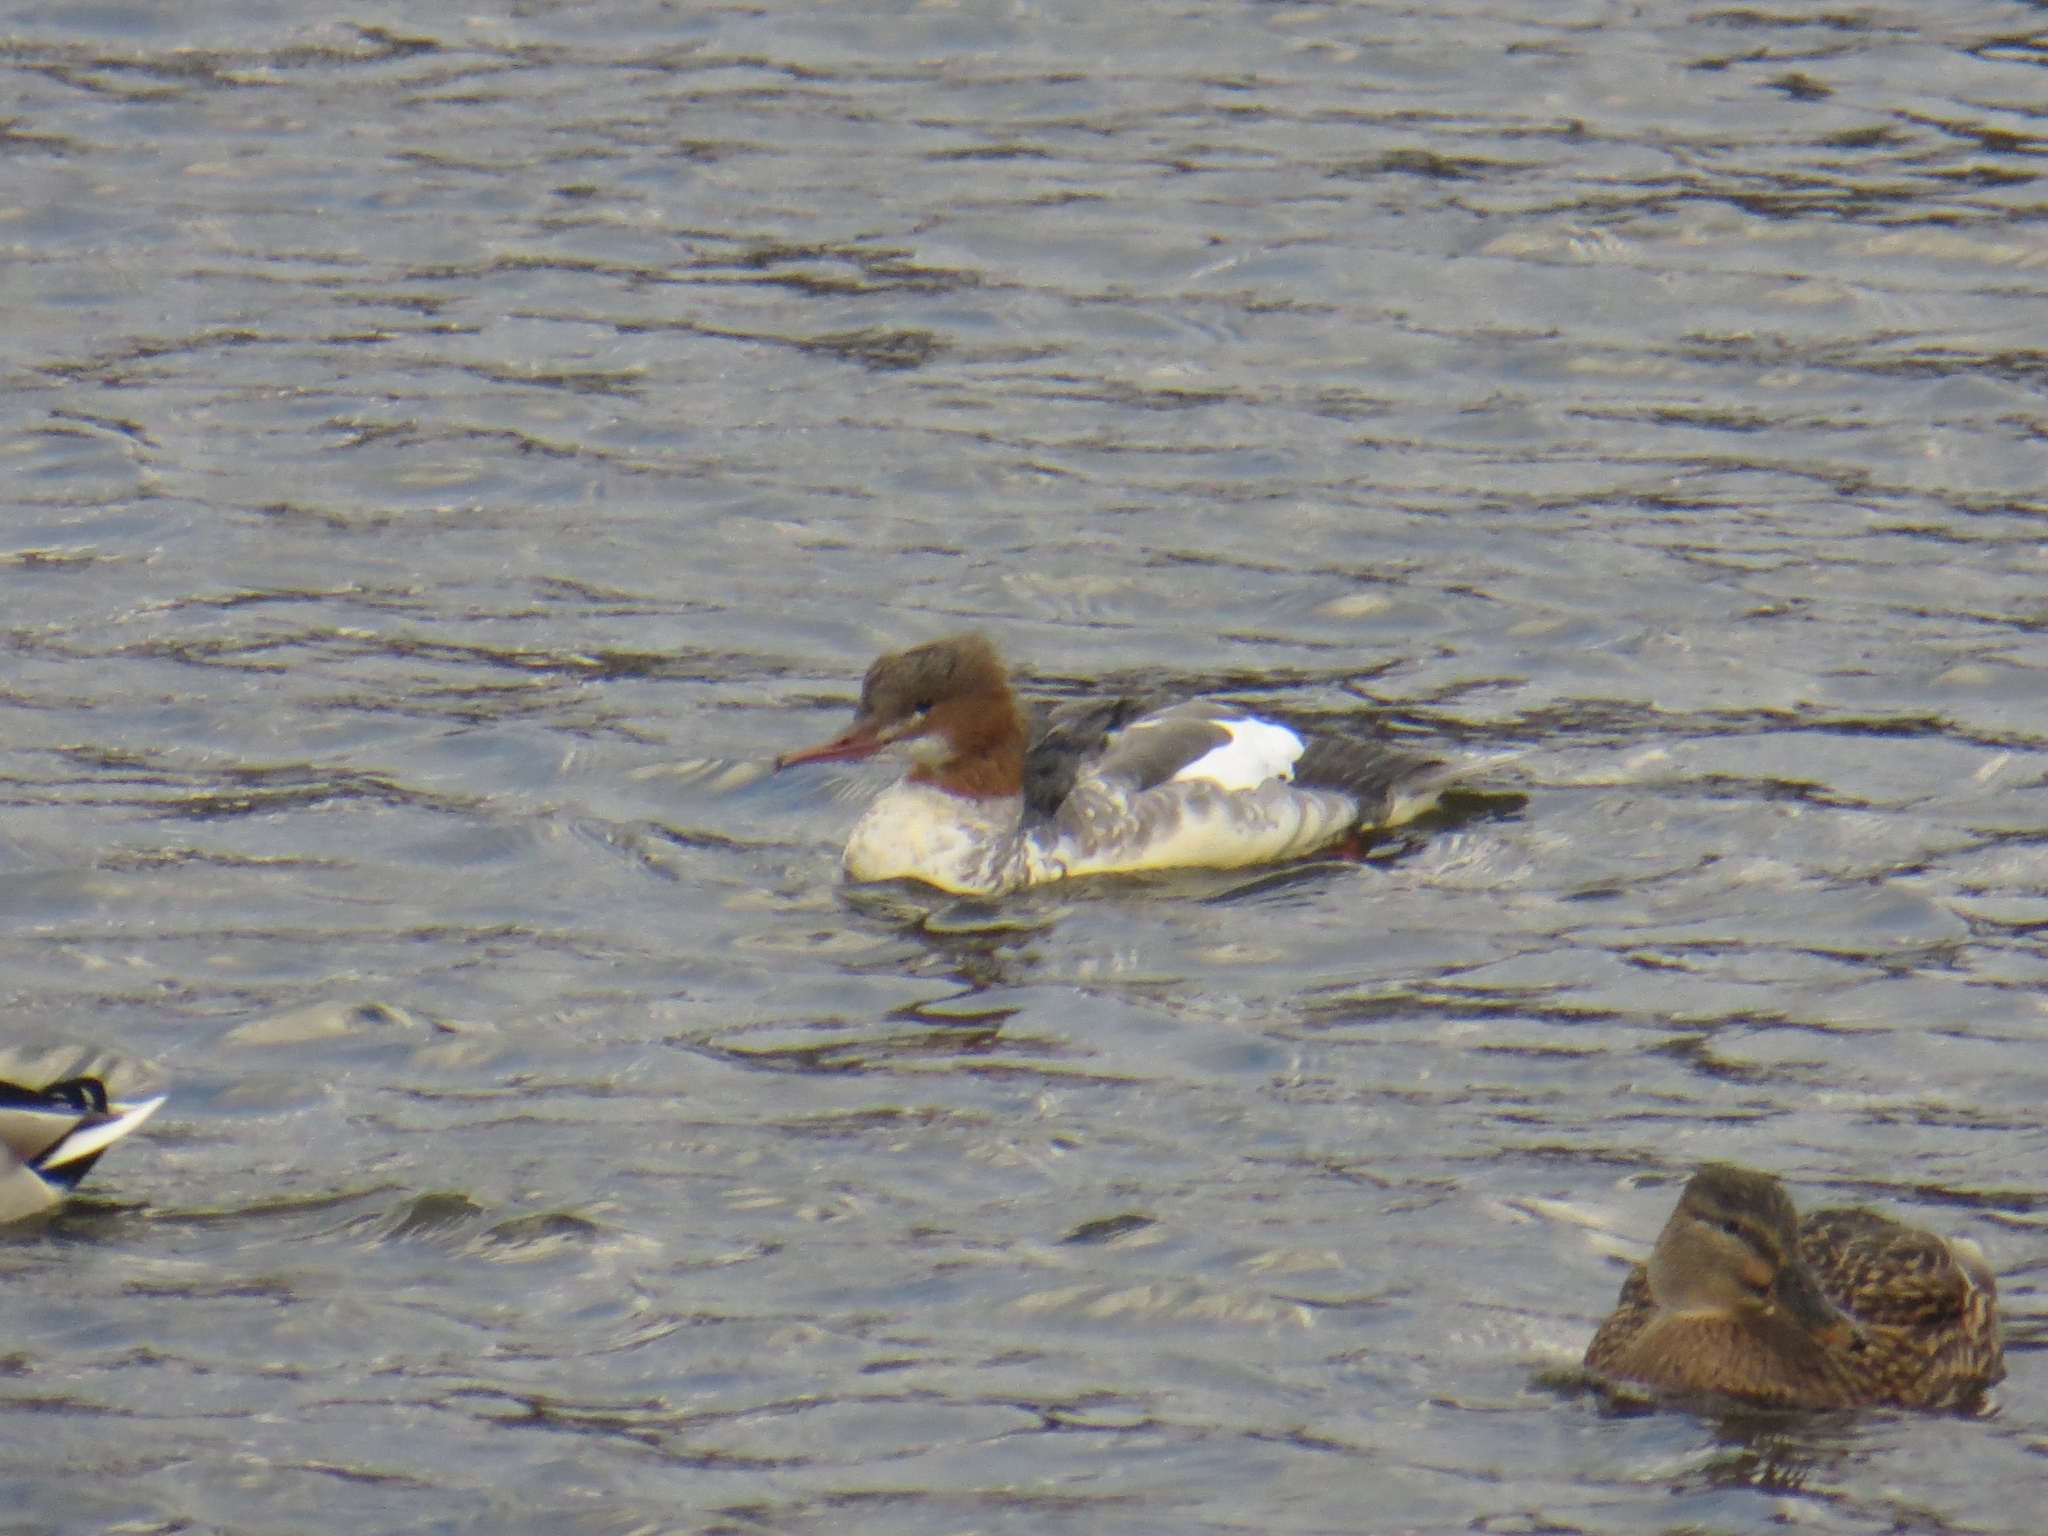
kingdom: Animalia
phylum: Chordata
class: Aves
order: Anseriformes
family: Anatidae
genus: Mergus
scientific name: Mergus merganser
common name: Common merganser
